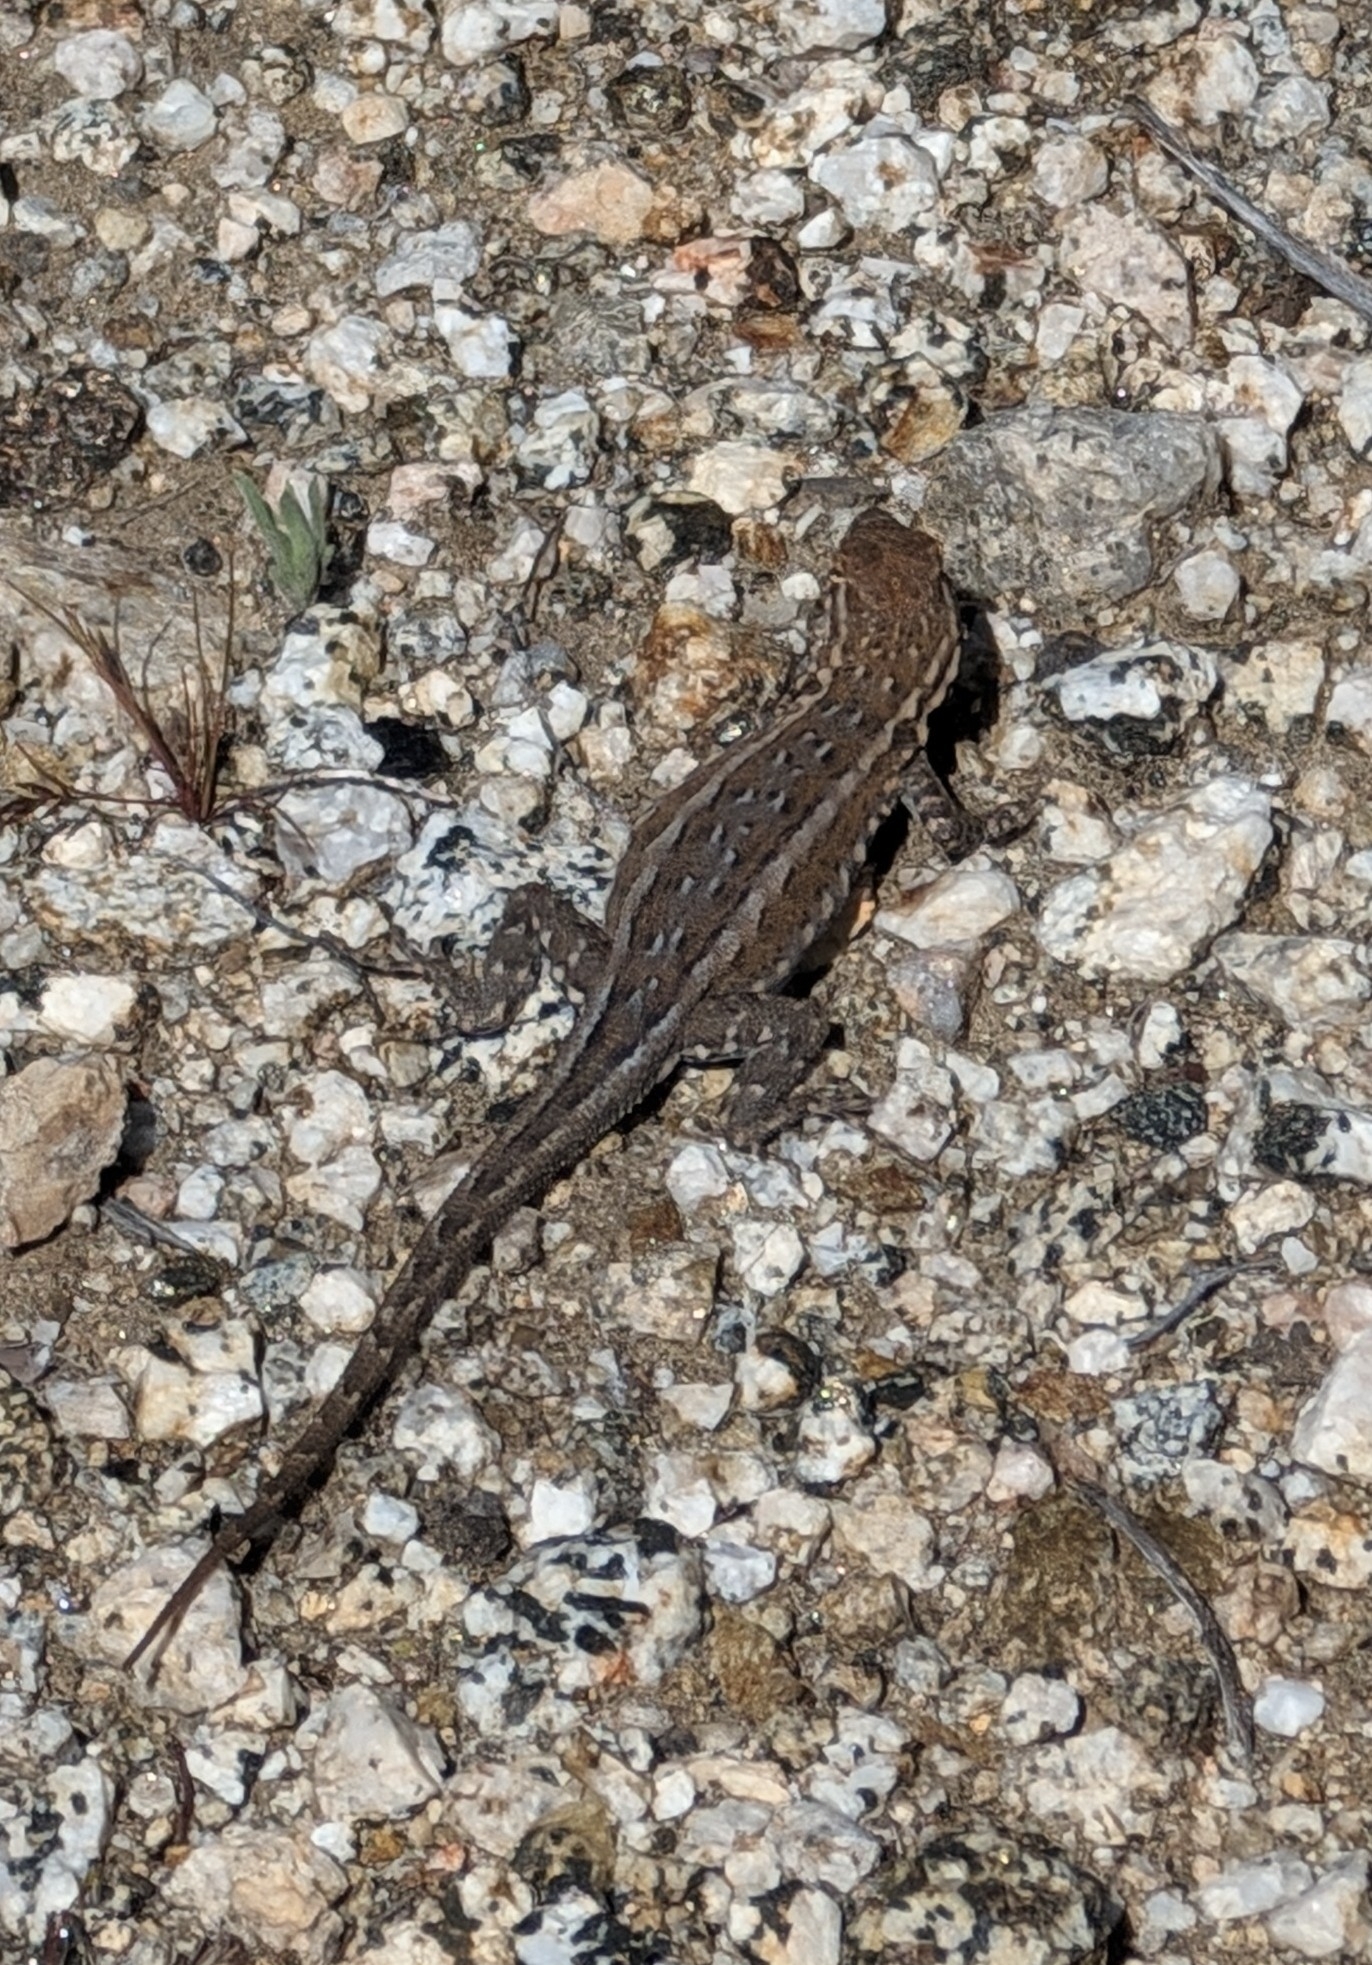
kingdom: Animalia
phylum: Chordata
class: Squamata
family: Phrynosomatidae
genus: Uta
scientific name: Uta stansburiana
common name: Side-blotched lizard
